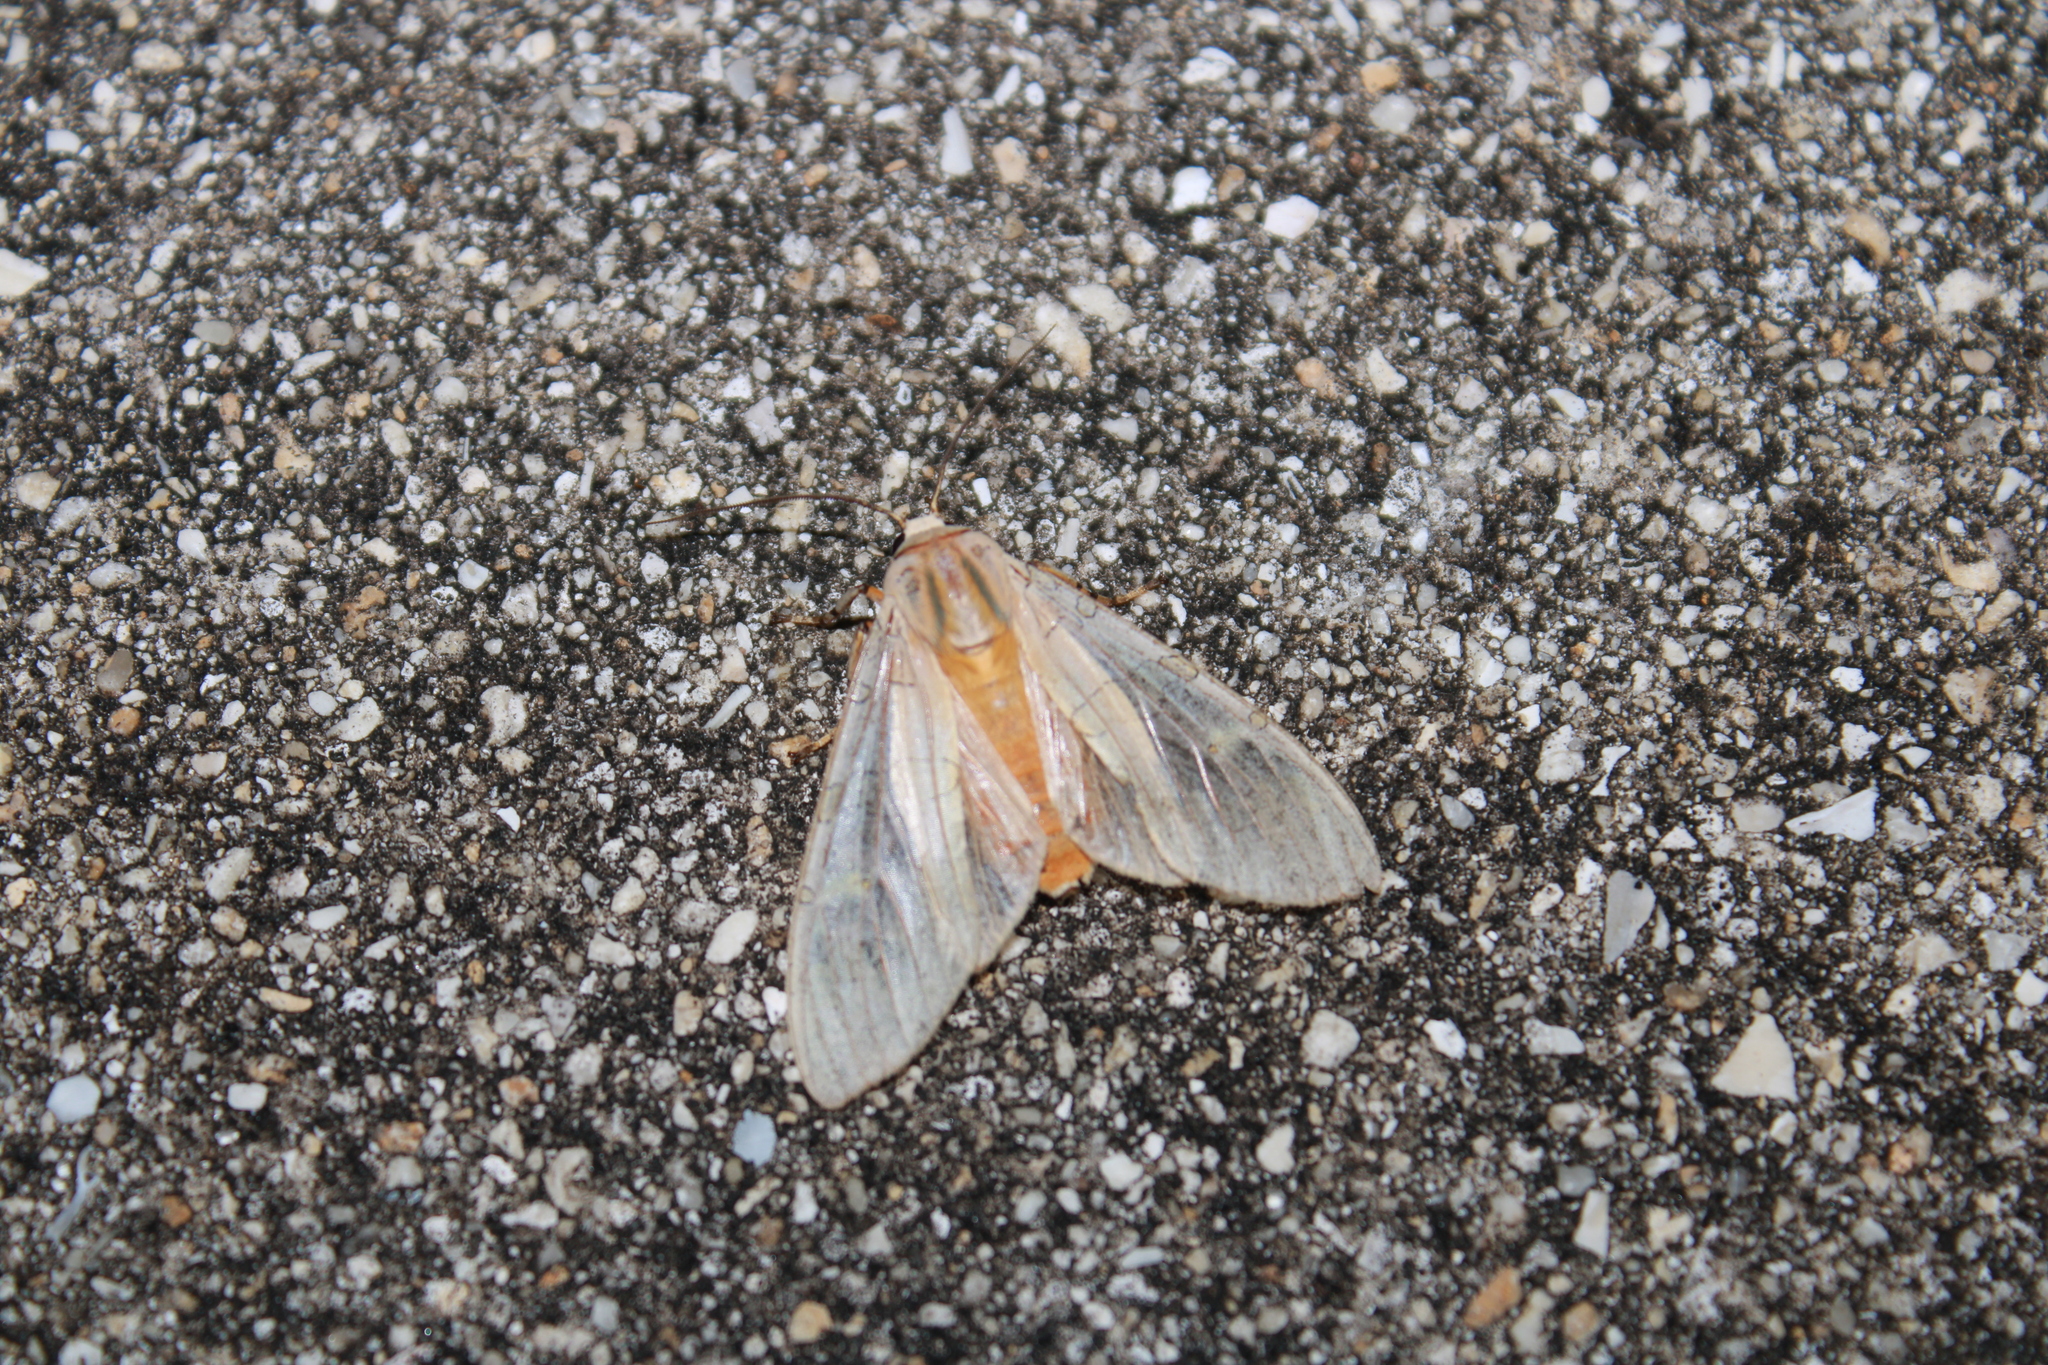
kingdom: Animalia
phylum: Arthropoda
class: Insecta
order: Lepidoptera
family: Erebidae
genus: Halysidota
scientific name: Halysidota cinctipes
